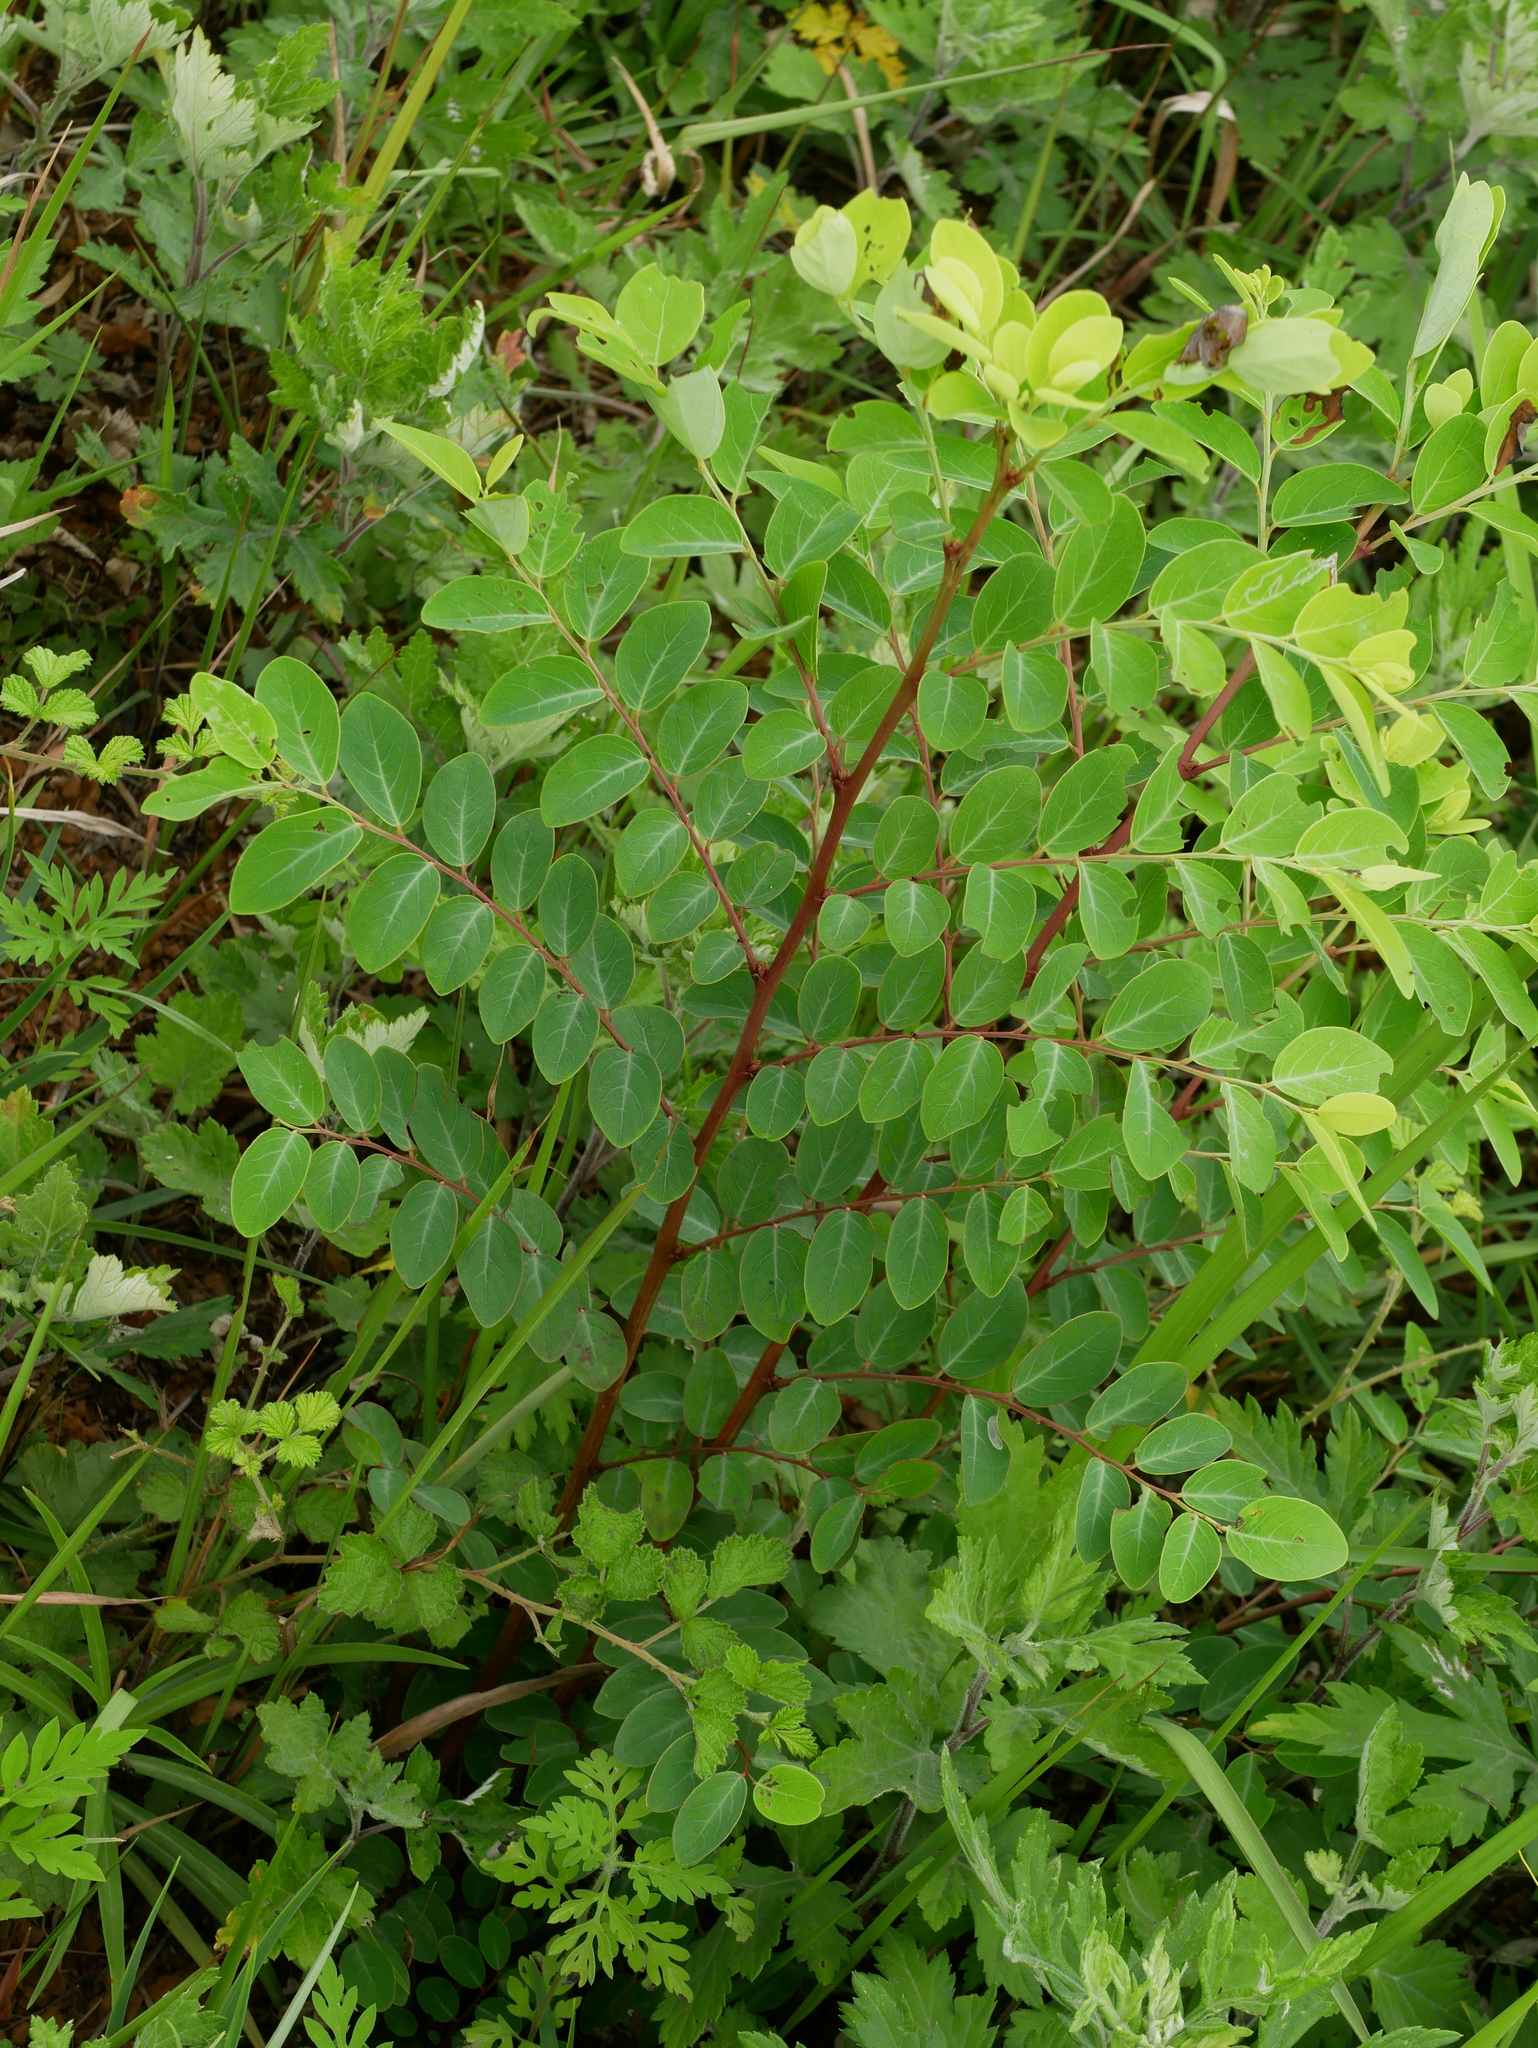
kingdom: Plantae
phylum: Tracheophyta
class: Magnoliopsida
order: Malpighiales
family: Phyllanthaceae
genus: Breynia
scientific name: Breynia vitis-idaea
